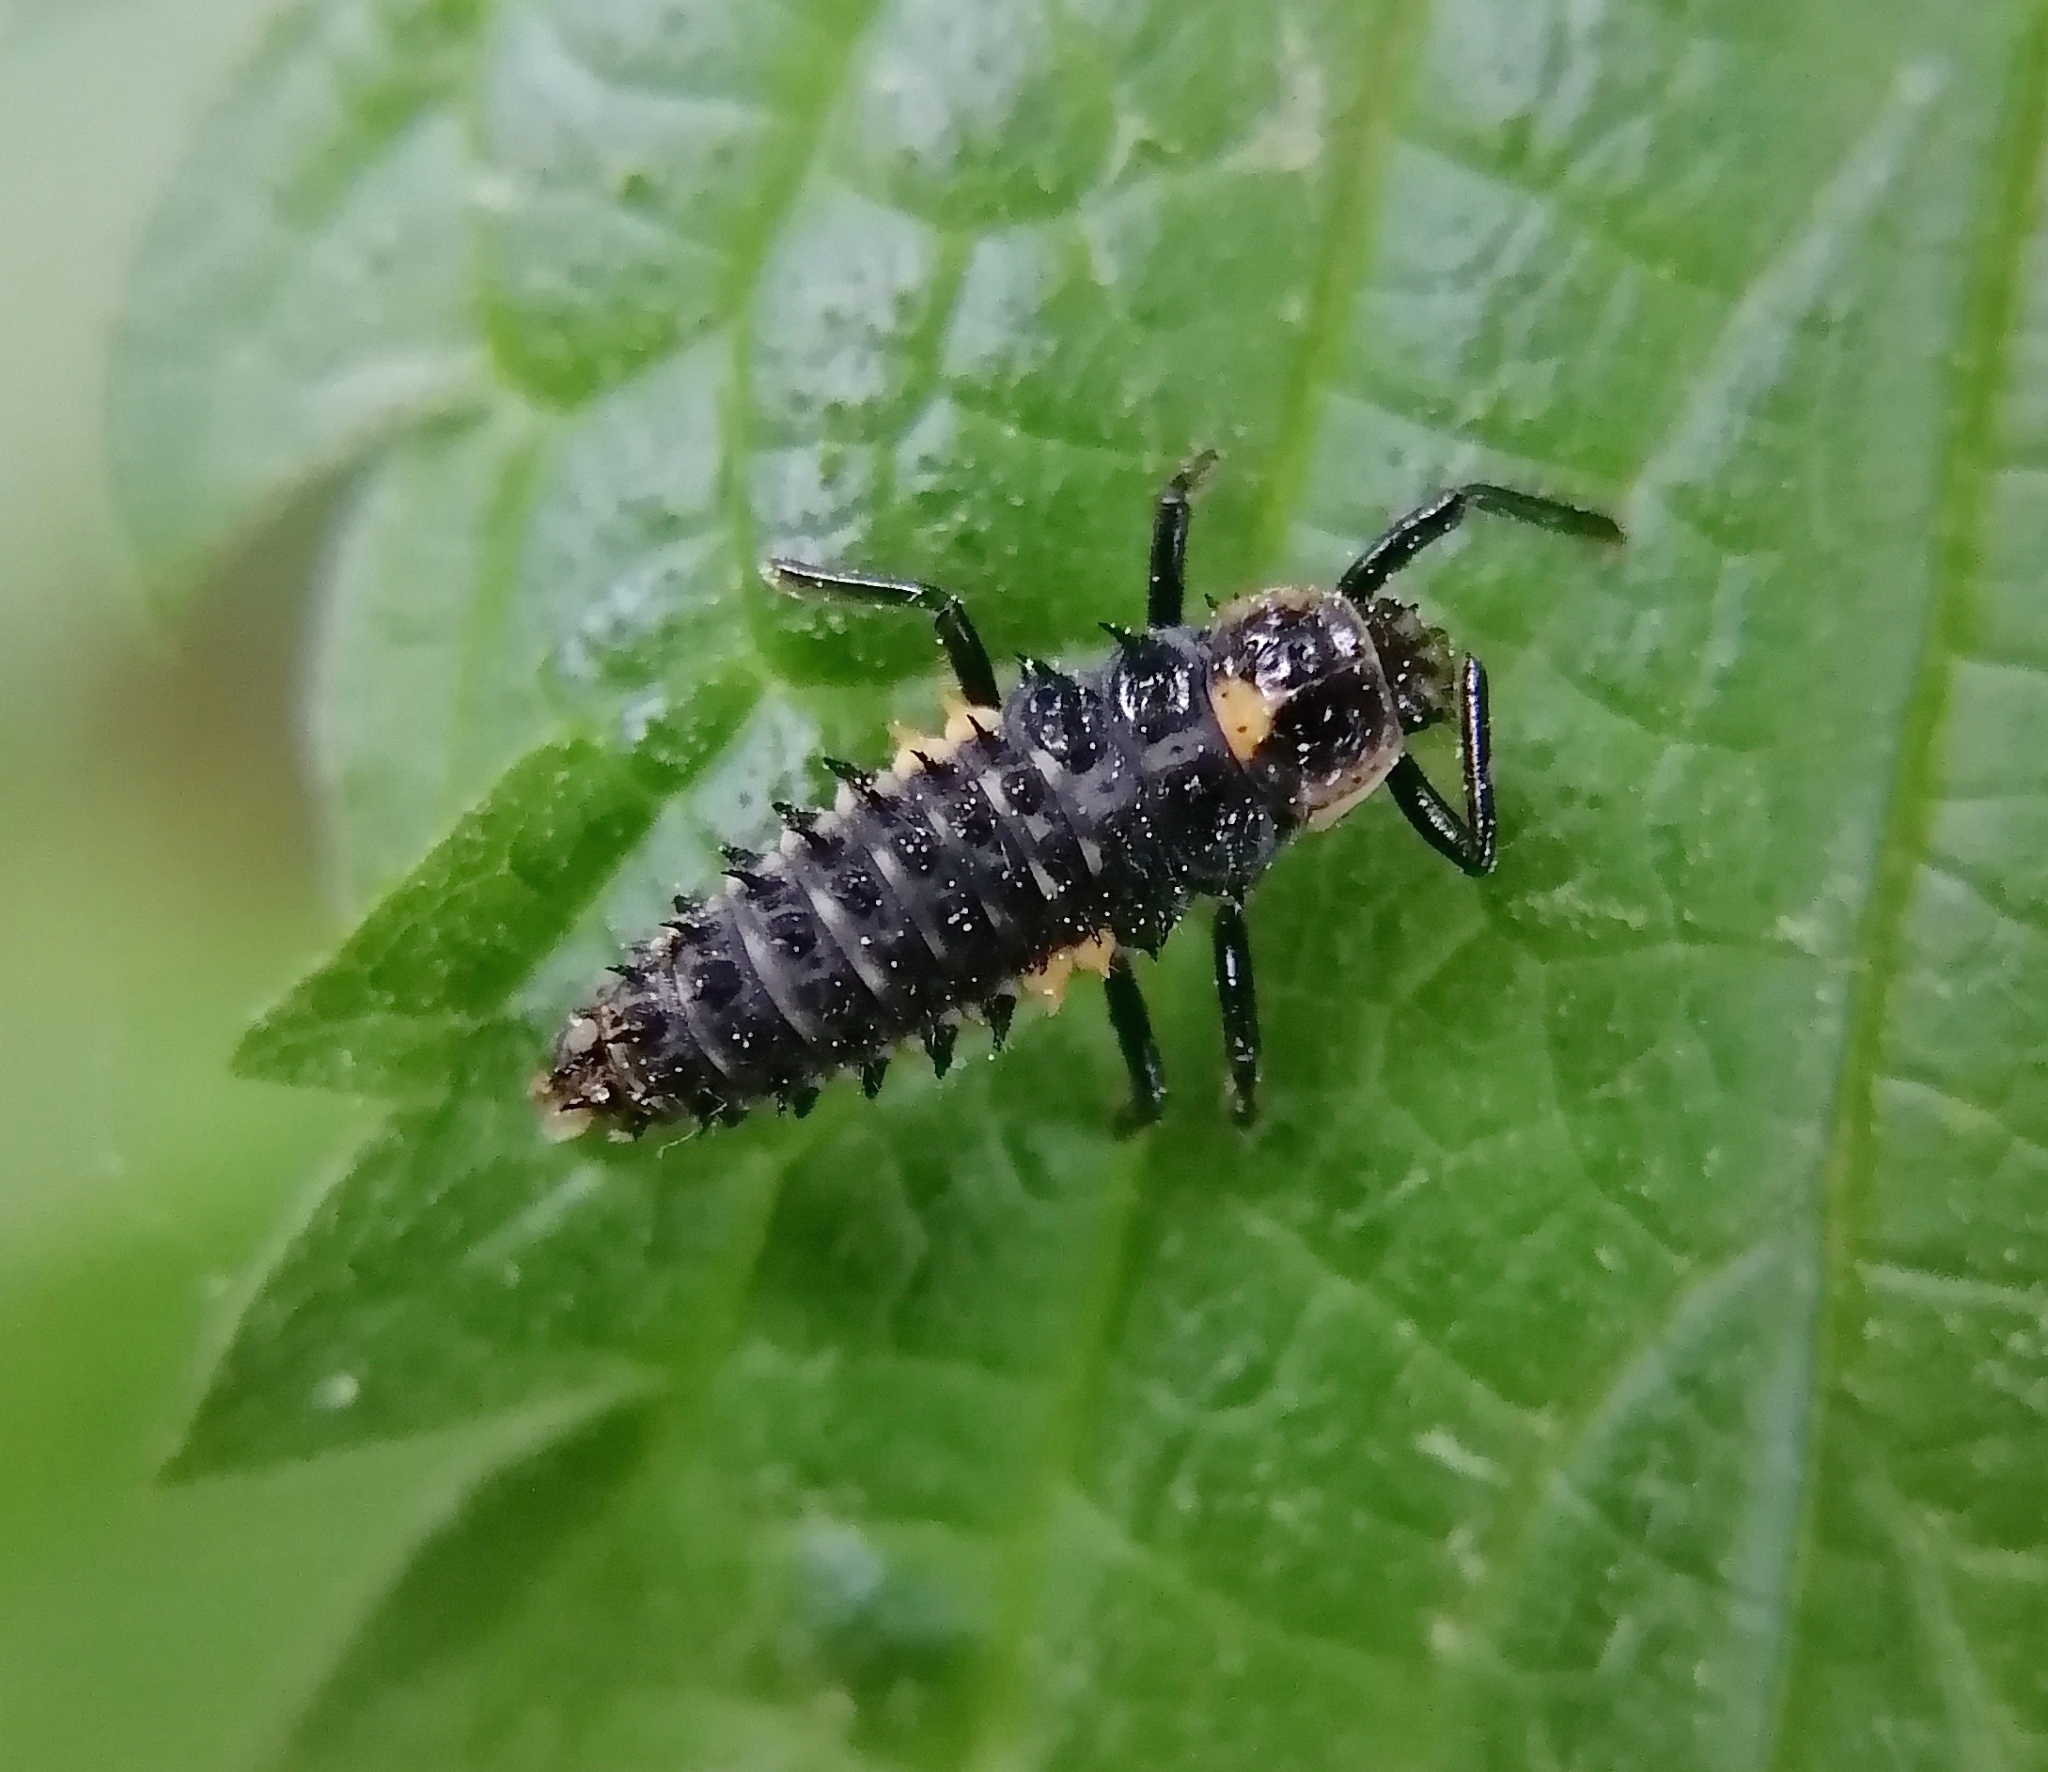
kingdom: Animalia
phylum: Arthropoda
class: Insecta
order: Coleoptera
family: Coccinellidae
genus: Anatis
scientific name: Anatis ocellata
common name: Eyed ladybird
